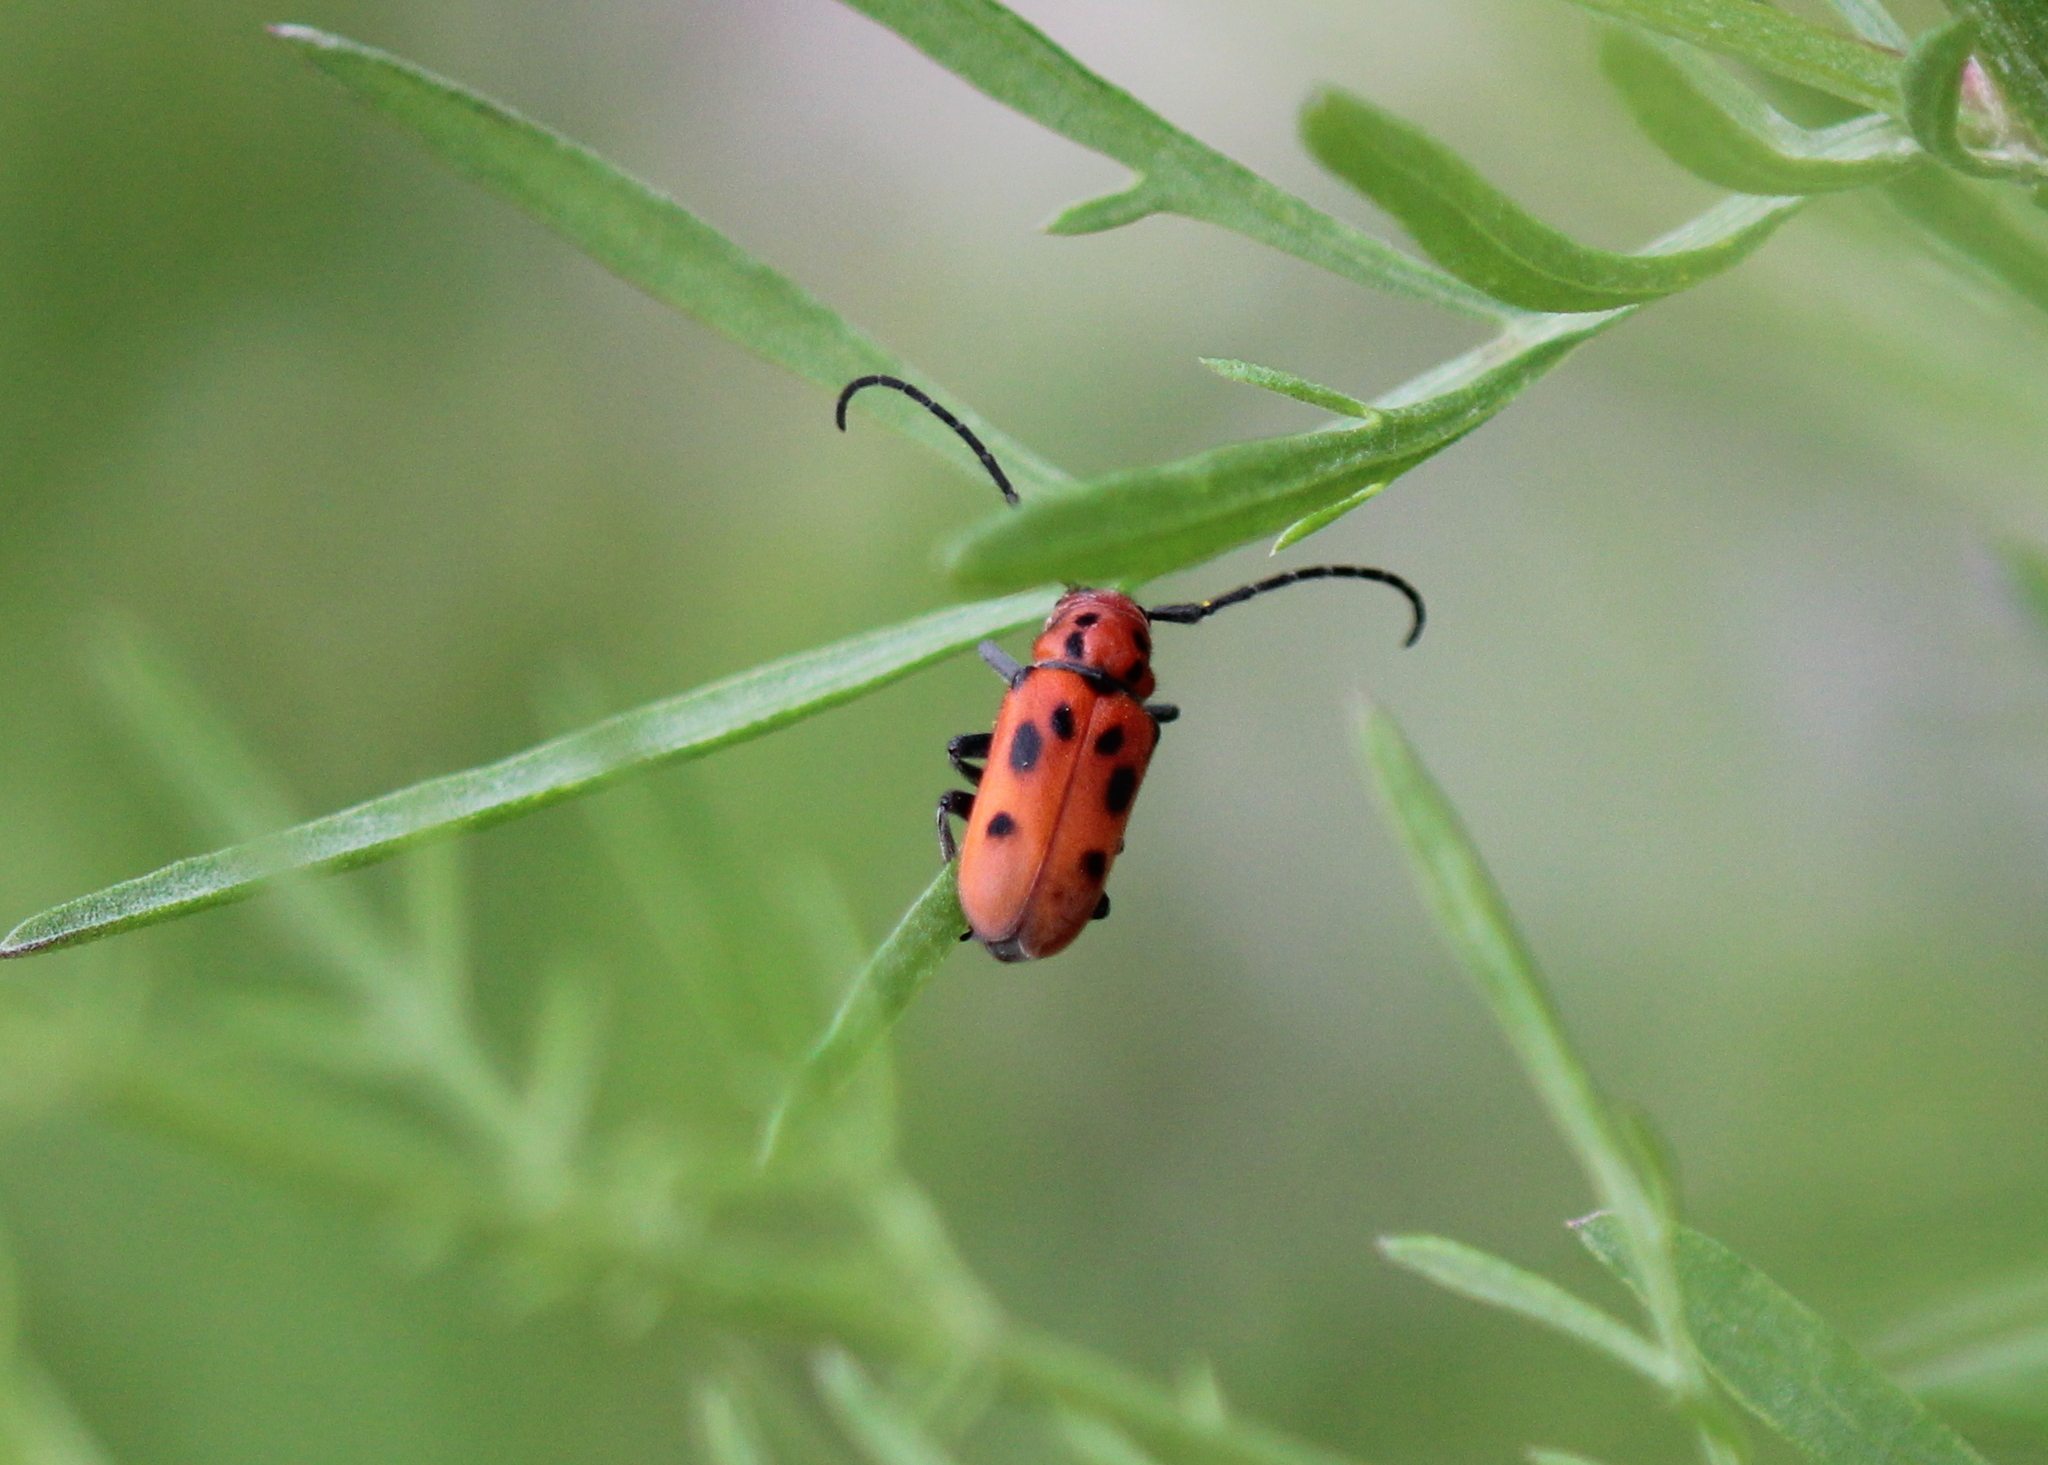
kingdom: Animalia
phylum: Arthropoda
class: Insecta
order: Coleoptera
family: Cerambycidae
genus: Tetraopes
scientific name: Tetraopes tetrophthalmus
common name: Red milkweed beetle
